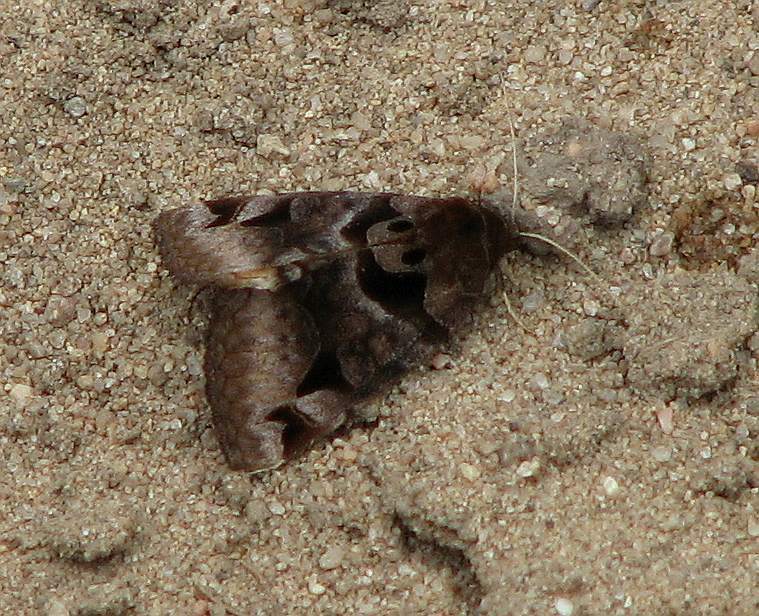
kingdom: Animalia
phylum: Arthropoda
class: Insecta
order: Lepidoptera
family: Erebidae
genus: Euclidia
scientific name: Euclidia cuspidea
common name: Toothed somberwing
